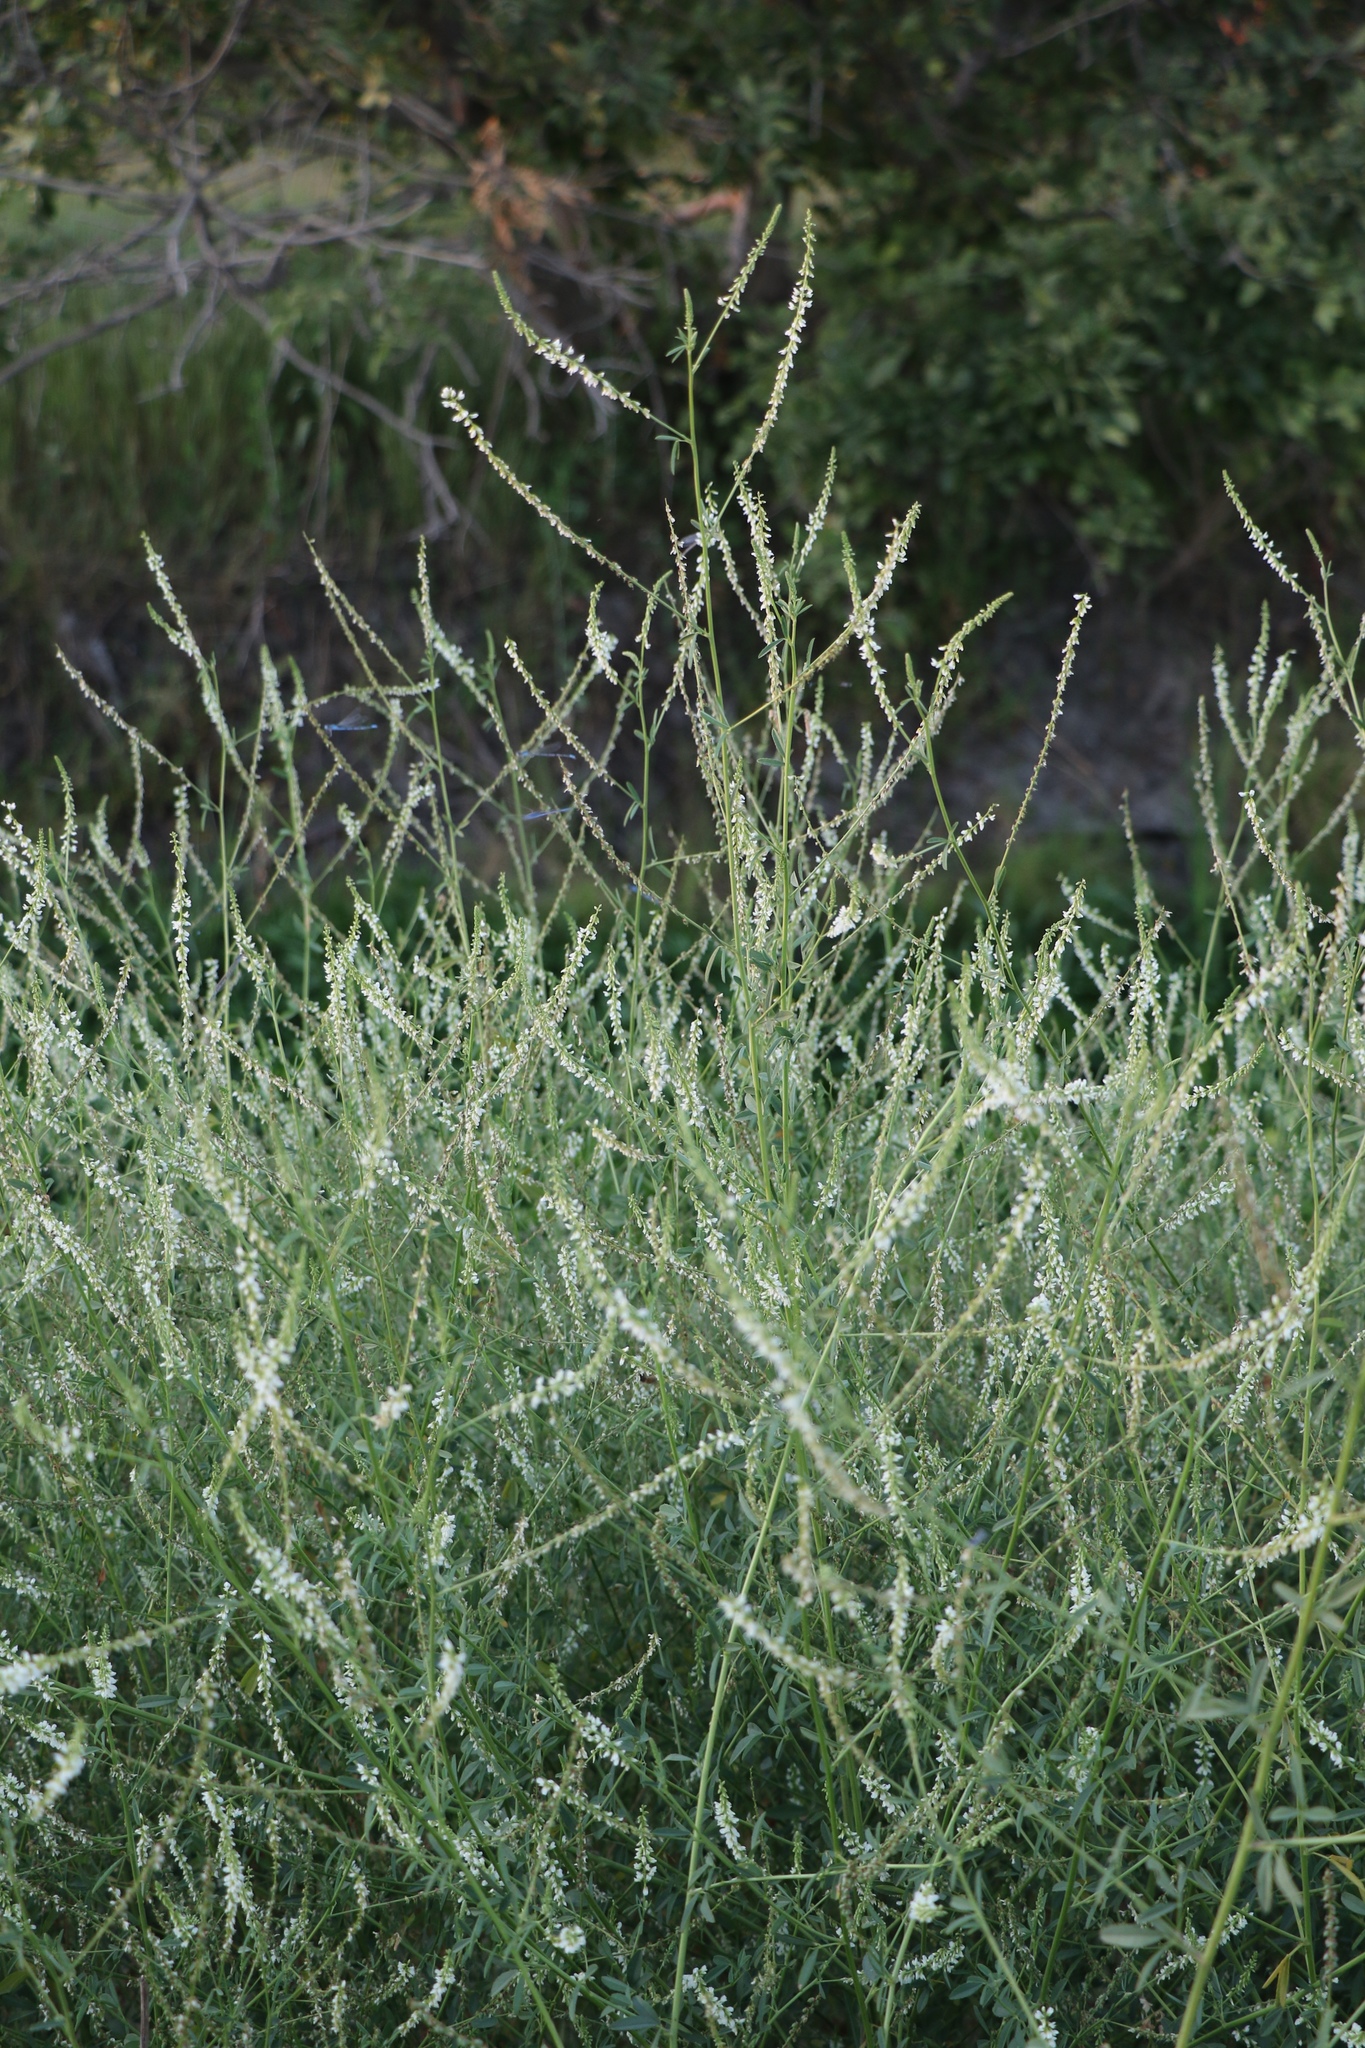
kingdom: Plantae
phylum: Tracheophyta
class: Magnoliopsida
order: Fabales
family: Fabaceae
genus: Melilotus
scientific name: Melilotus albus
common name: White melilot
